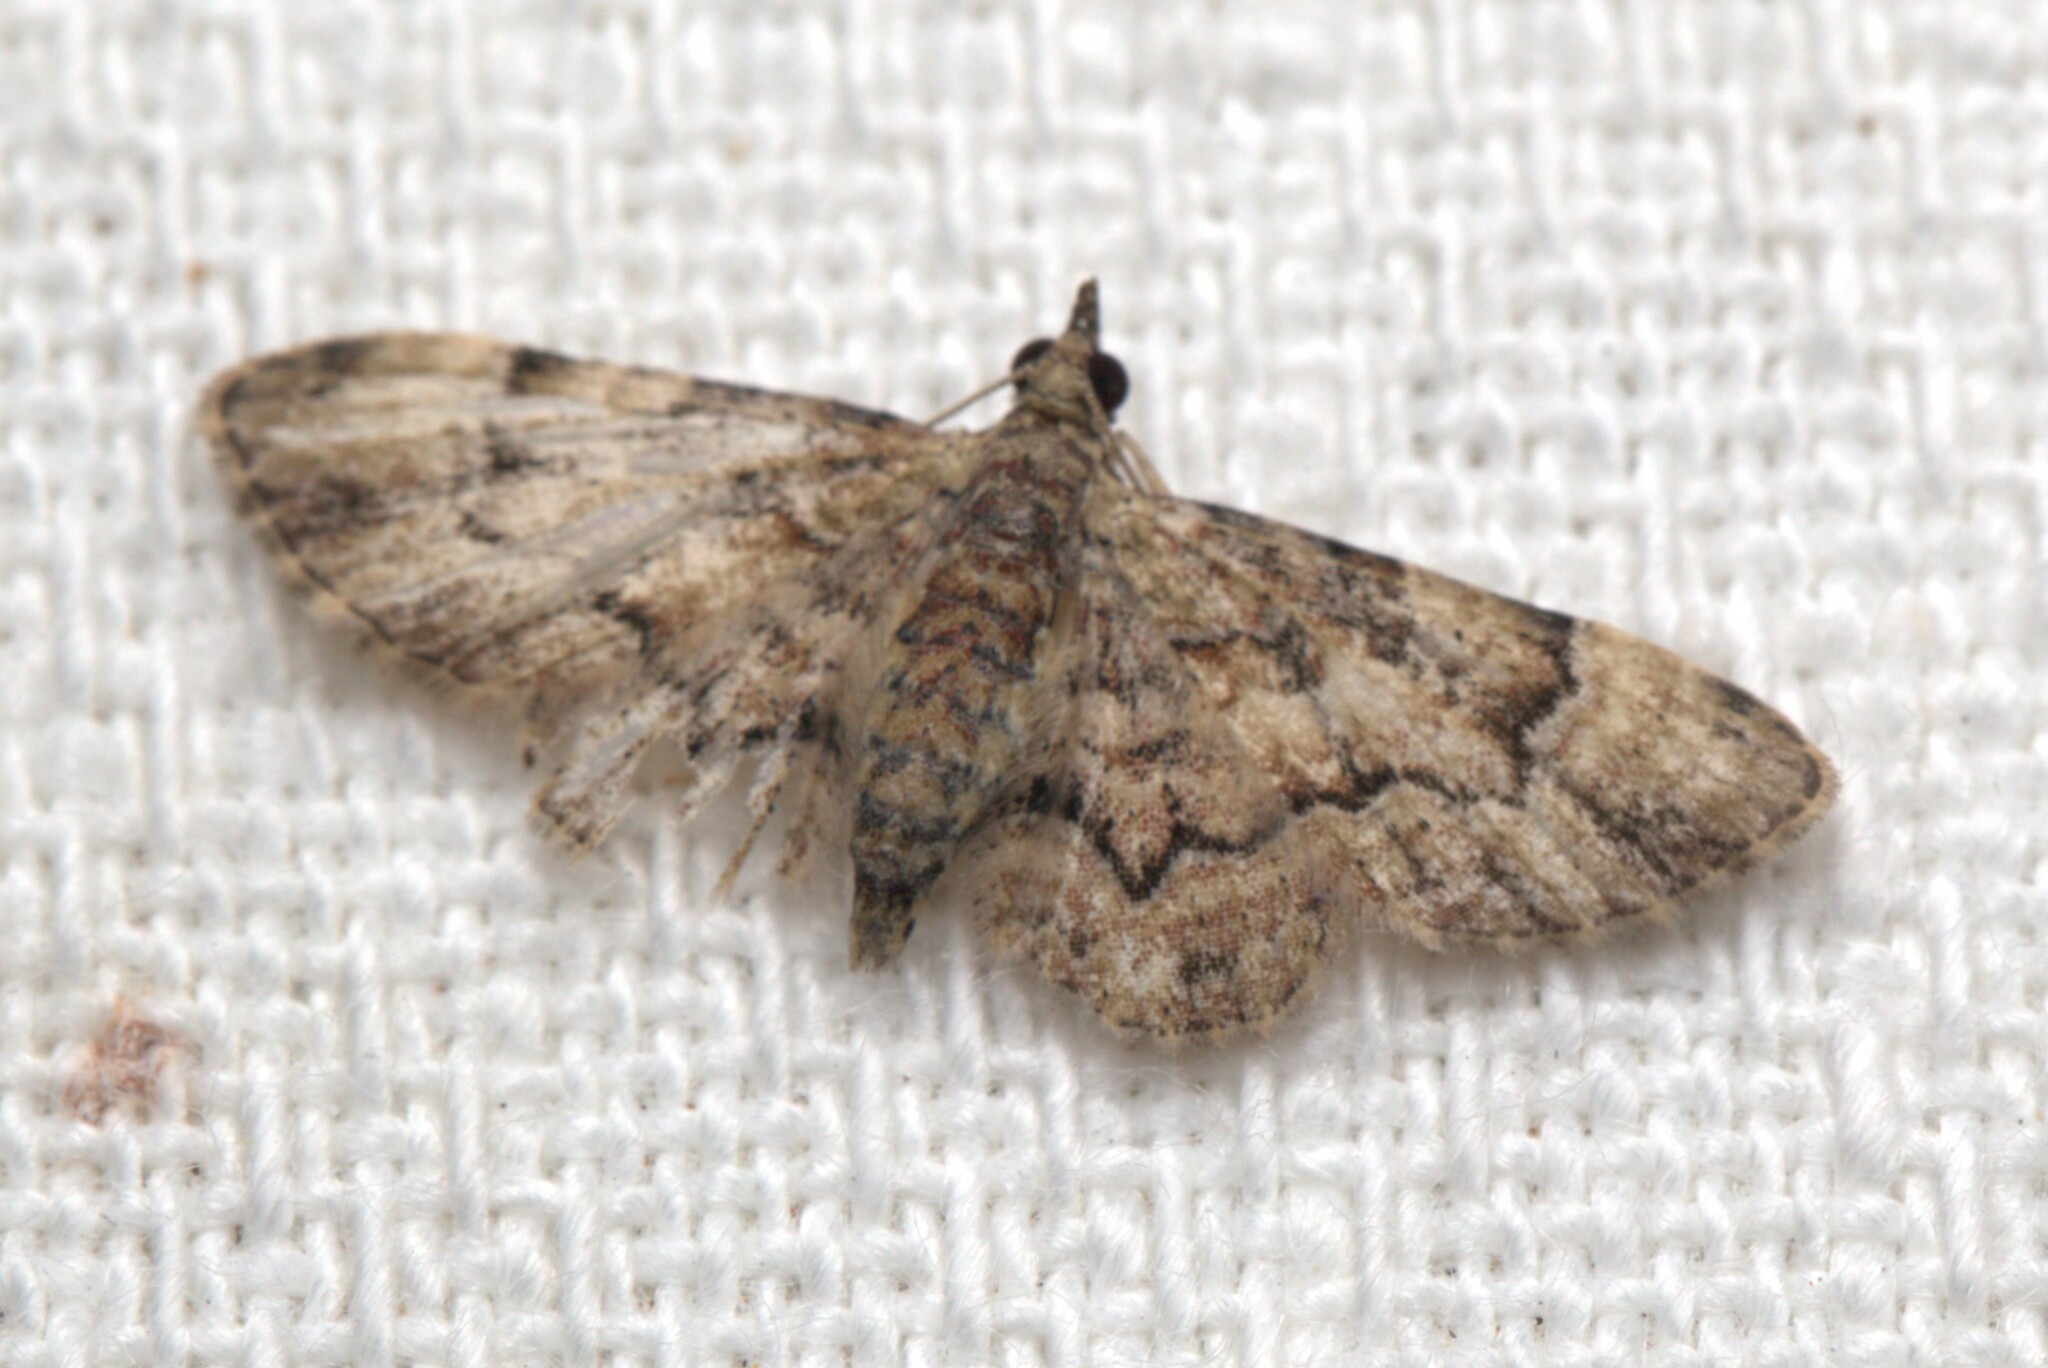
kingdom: Animalia
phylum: Arthropoda
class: Insecta
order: Lepidoptera
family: Geometridae
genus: Gymnoscelis
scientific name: Gymnoscelis lophopus
